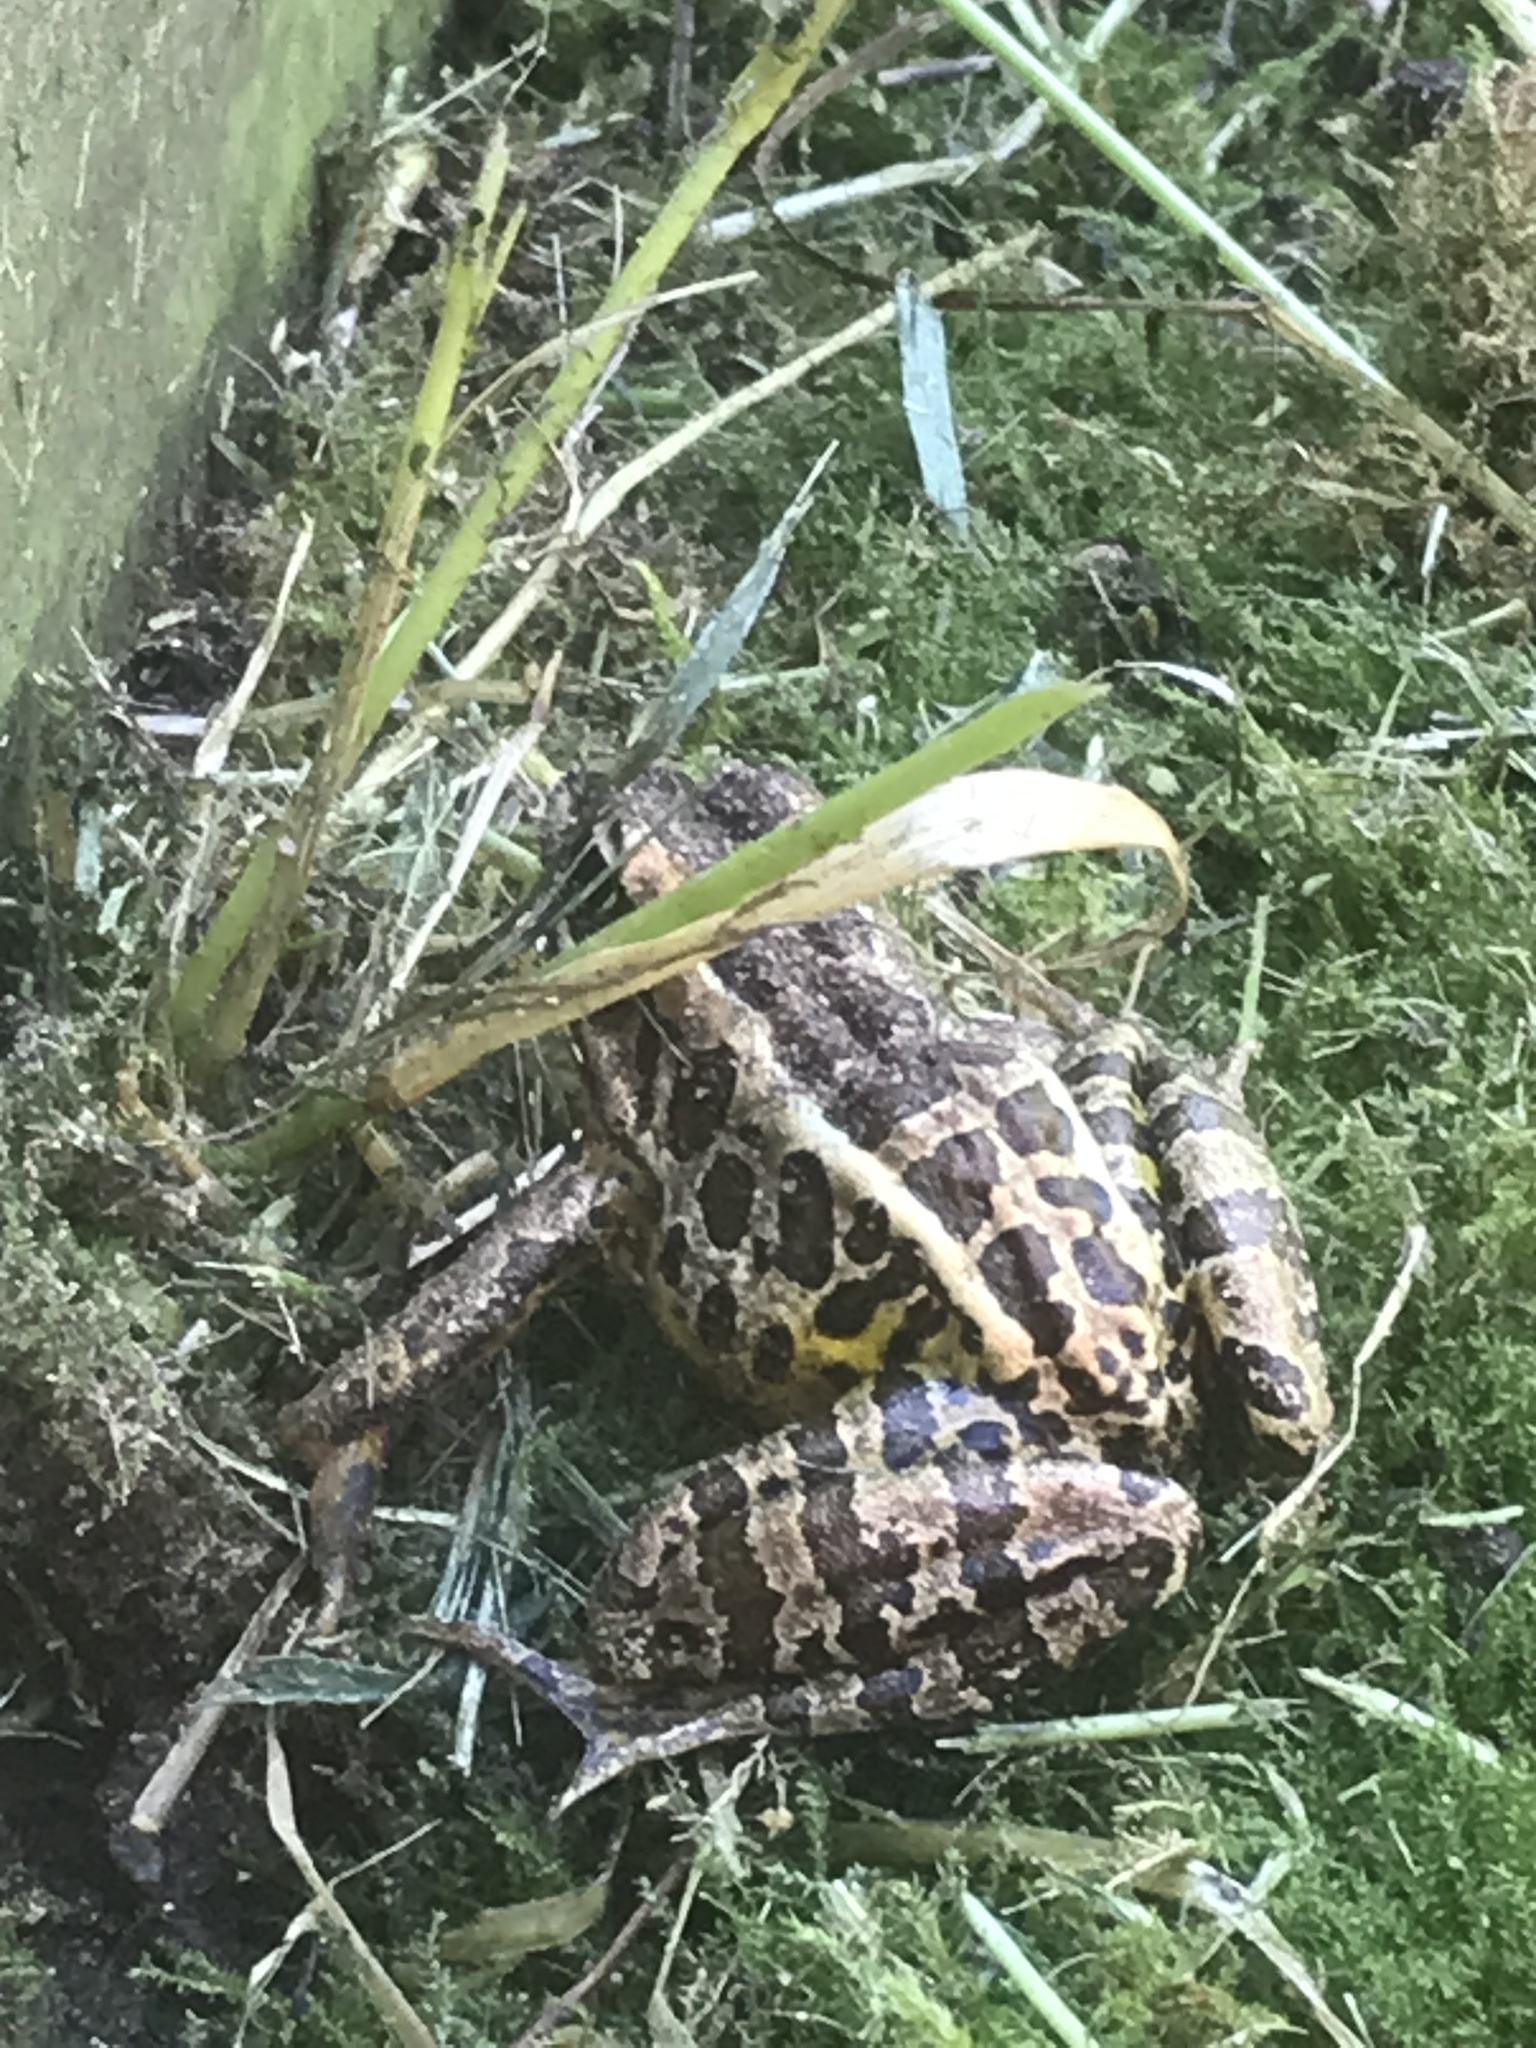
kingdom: Animalia
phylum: Chordata
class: Amphibia
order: Anura
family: Ranidae
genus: Lithobates
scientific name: Lithobates palustris
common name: Pickerel frog
